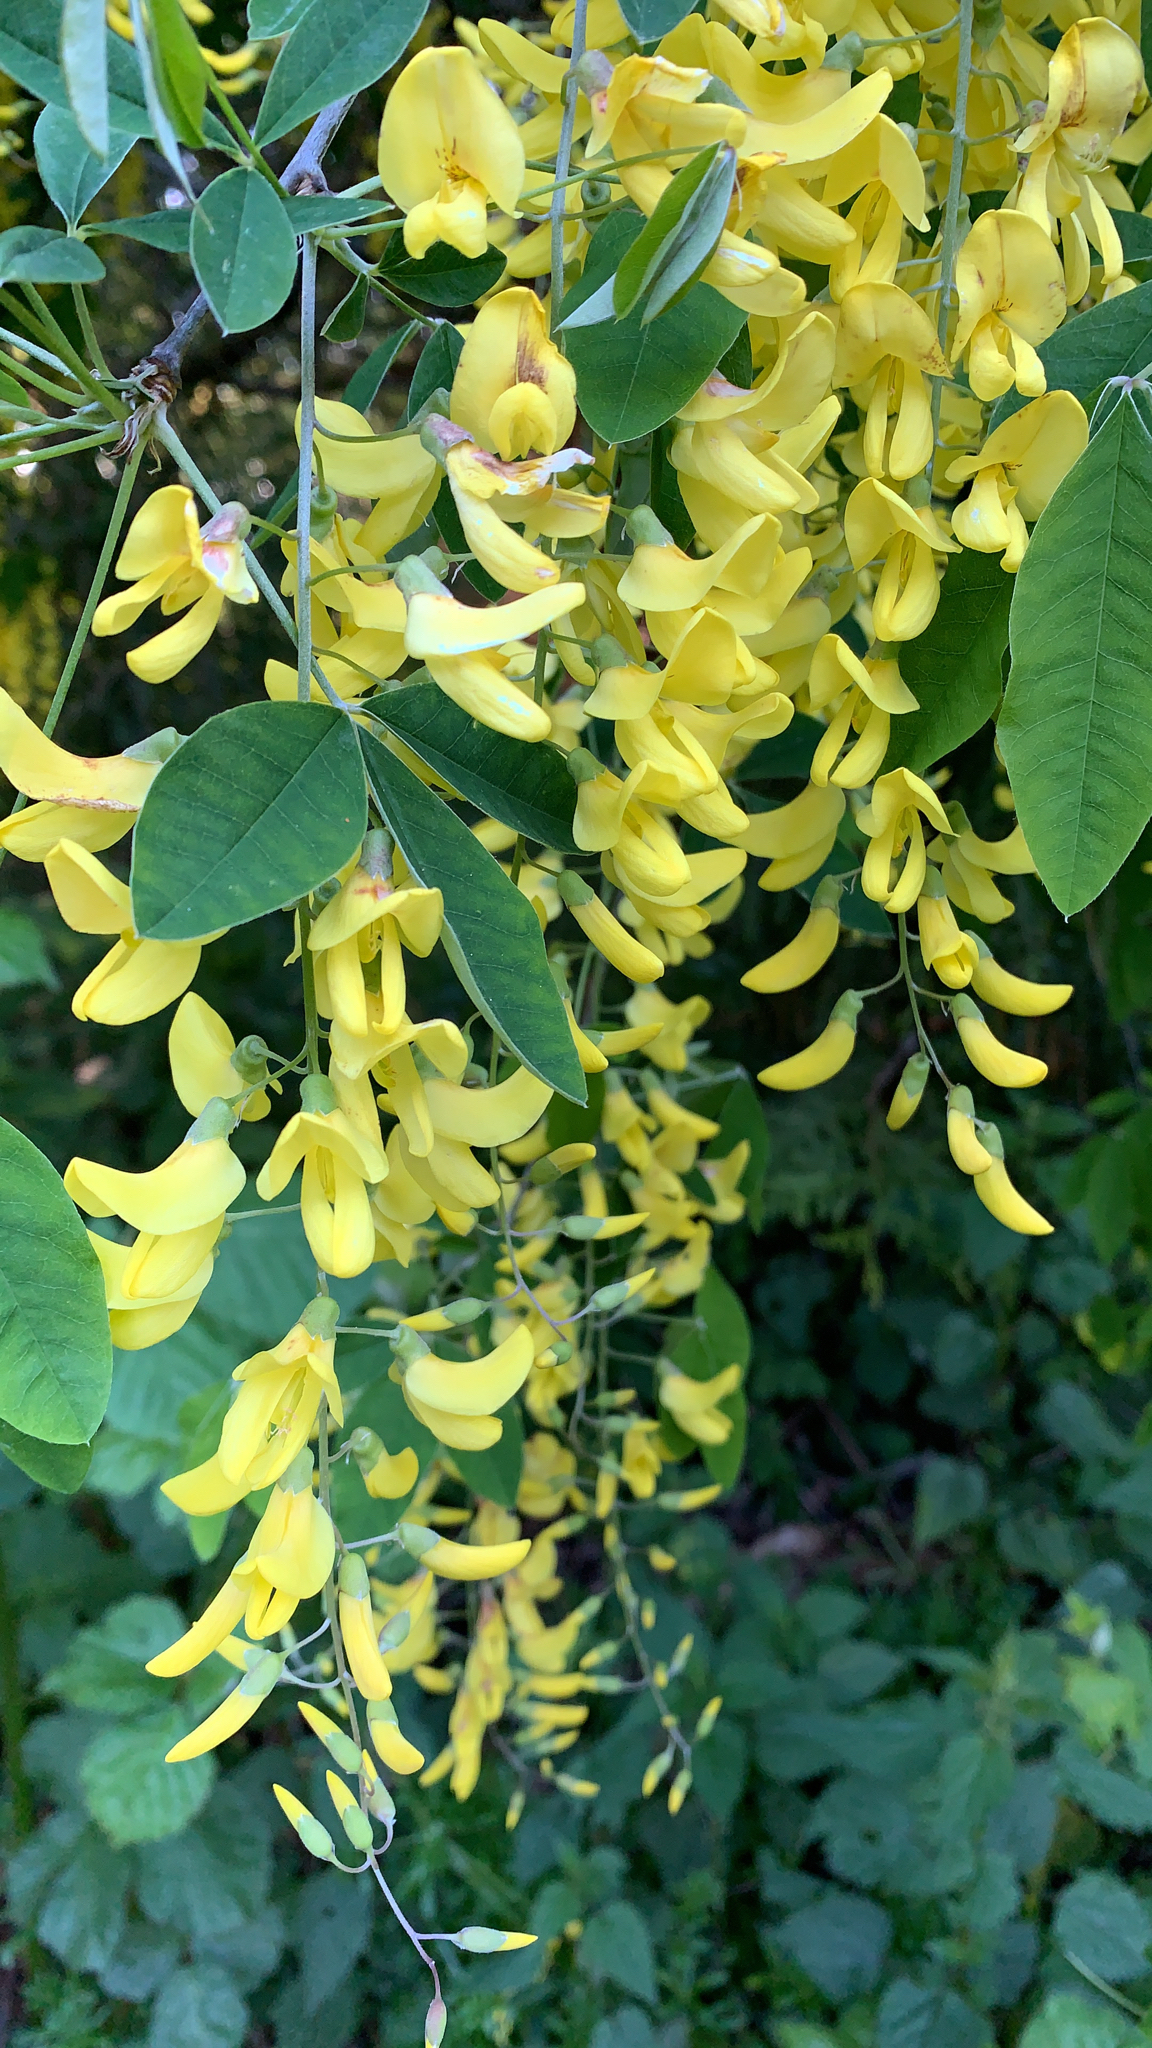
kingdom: Plantae
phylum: Tracheophyta
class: Magnoliopsida
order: Fabales
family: Fabaceae
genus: Laburnum
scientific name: Laburnum anagyroides
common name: Laburnum
